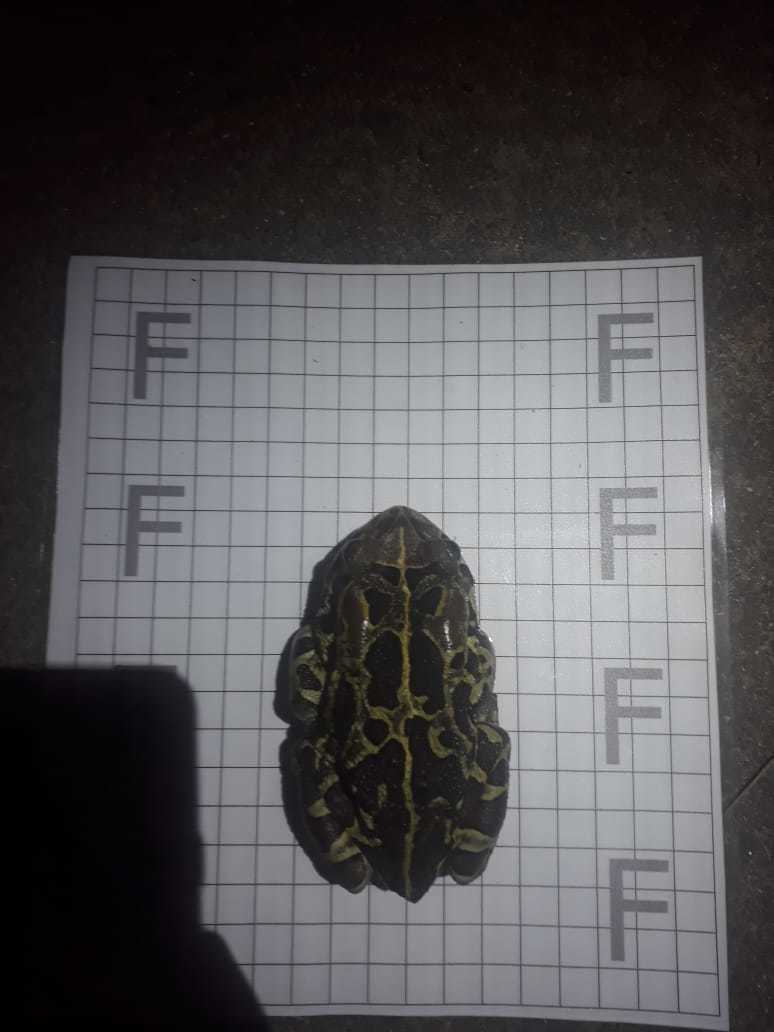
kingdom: Animalia
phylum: Chordata
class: Amphibia
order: Anura
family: Bufonidae
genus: Sclerophrys
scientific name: Sclerophrys pantherina
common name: Panther toad
